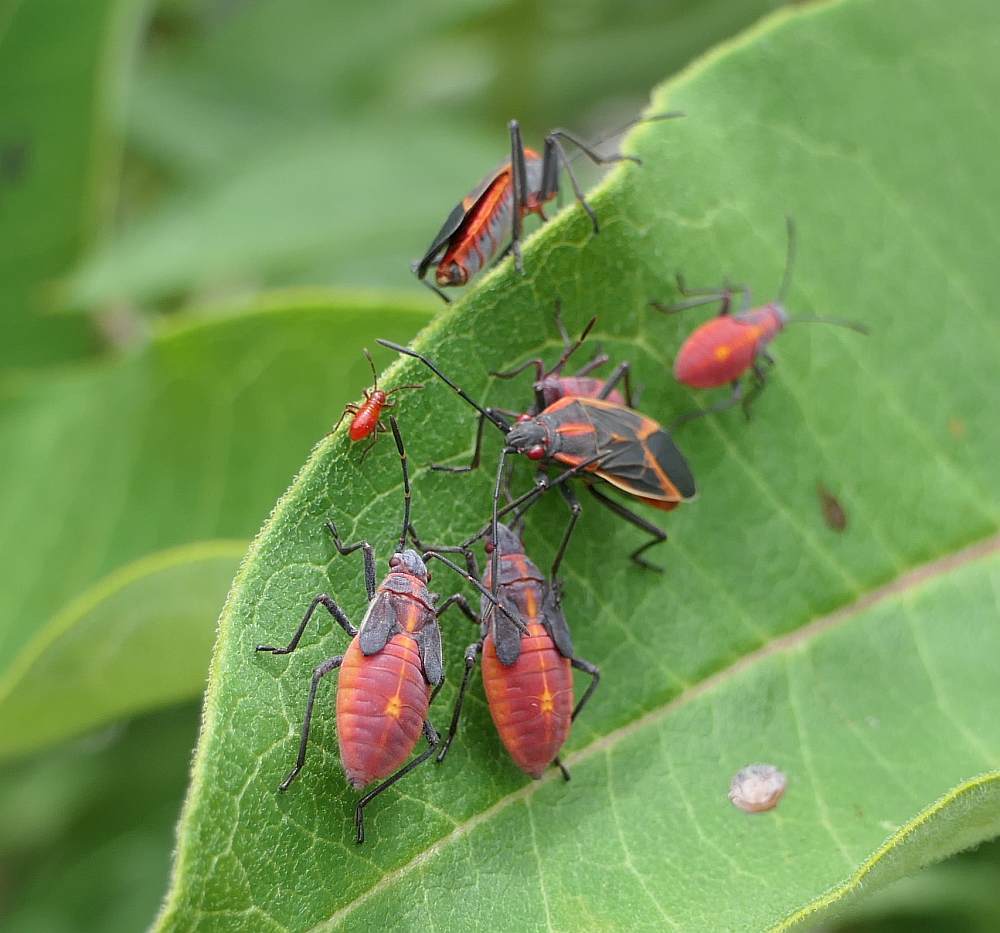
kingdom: Animalia
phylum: Arthropoda
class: Insecta
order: Hemiptera
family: Rhopalidae
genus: Boisea
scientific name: Boisea trivittata
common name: Boxelder bug
